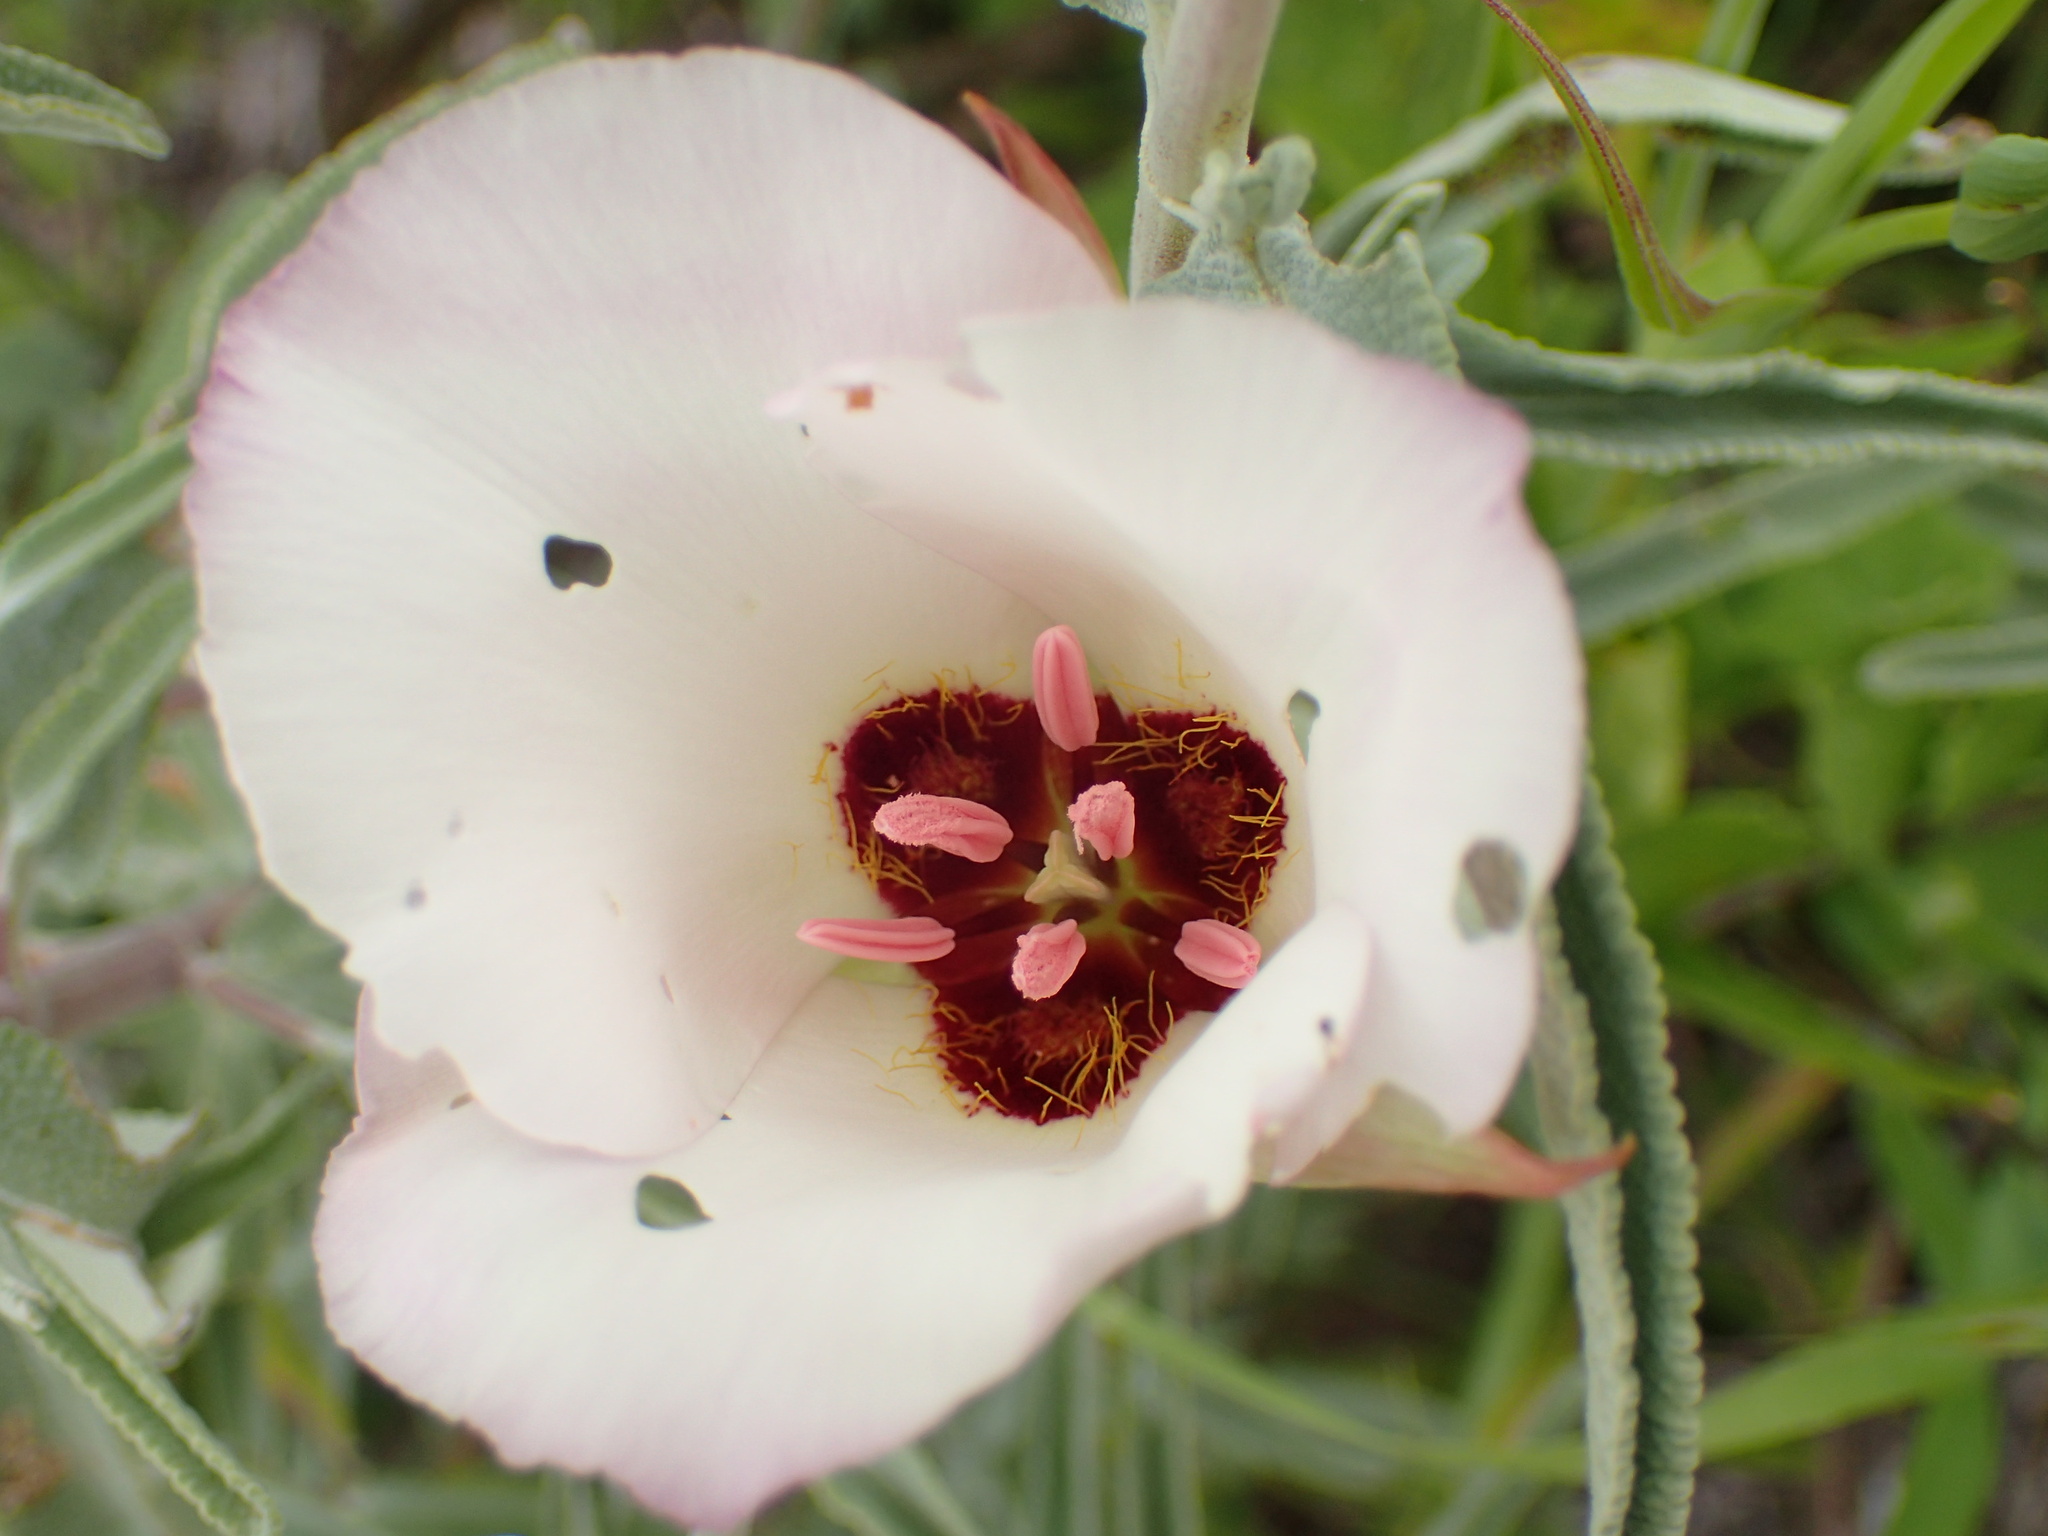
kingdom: Plantae
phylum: Tracheophyta
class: Liliopsida
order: Liliales
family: Liliaceae
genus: Calochortus
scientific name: Calochortus catalinae
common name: Catalina mariposa-lily
